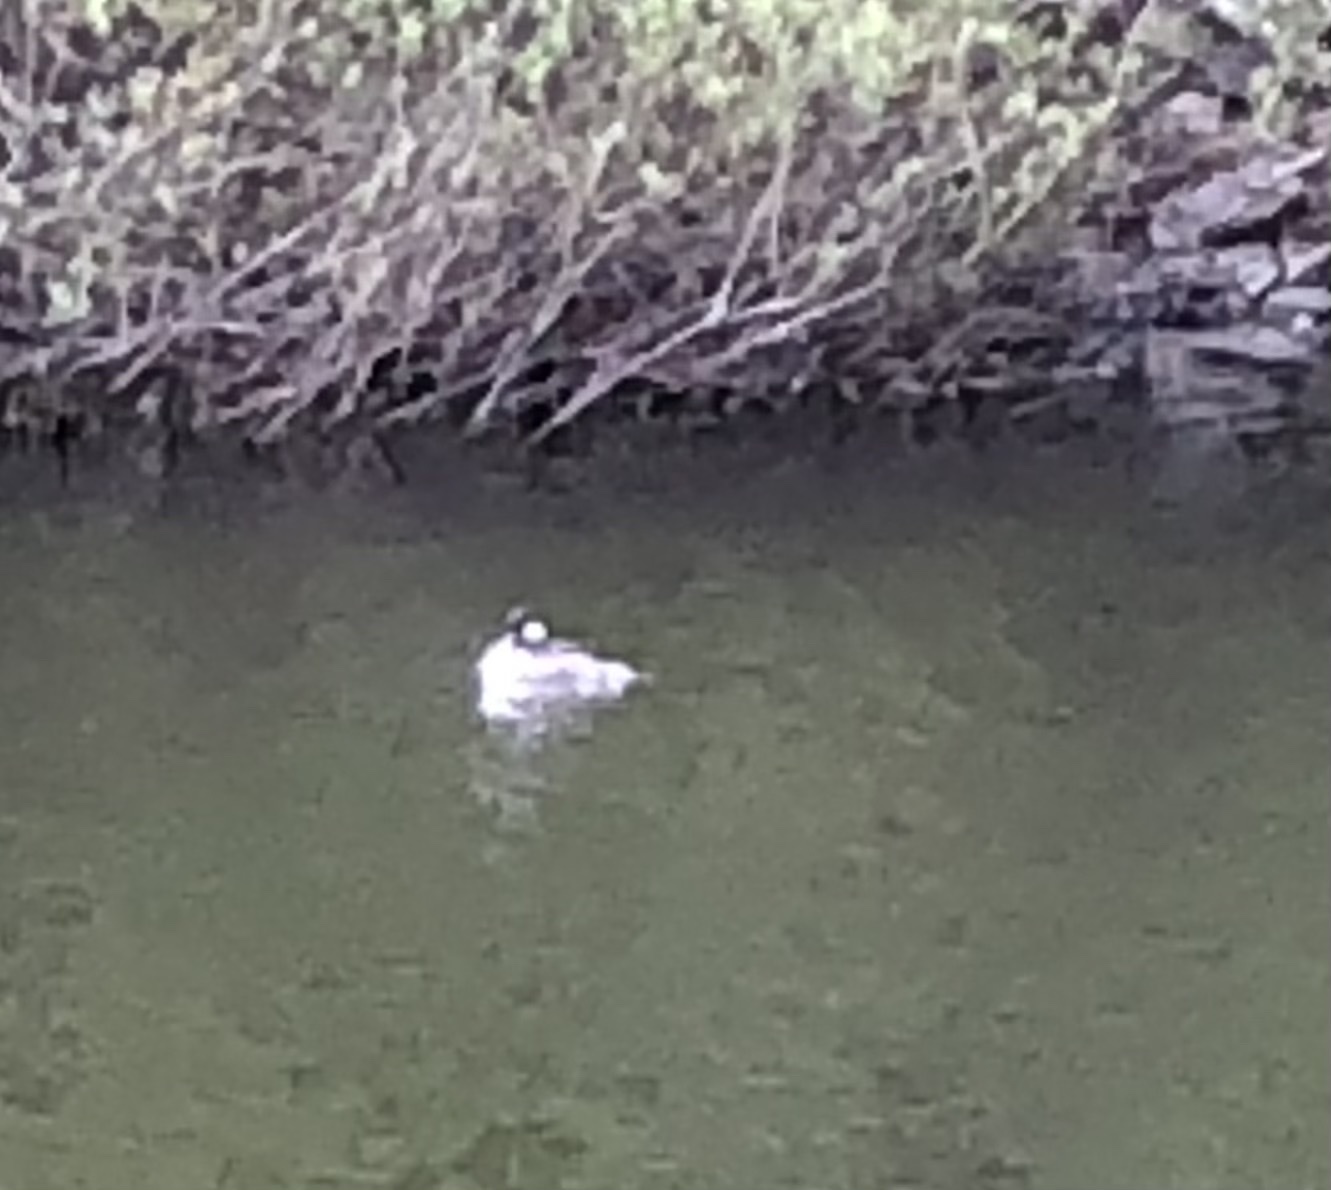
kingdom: Animalia
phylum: Chordata
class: Aves
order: Anseriformes
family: Anatidae
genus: Bucephala
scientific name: Bucephala albeola
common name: Bufflehead
